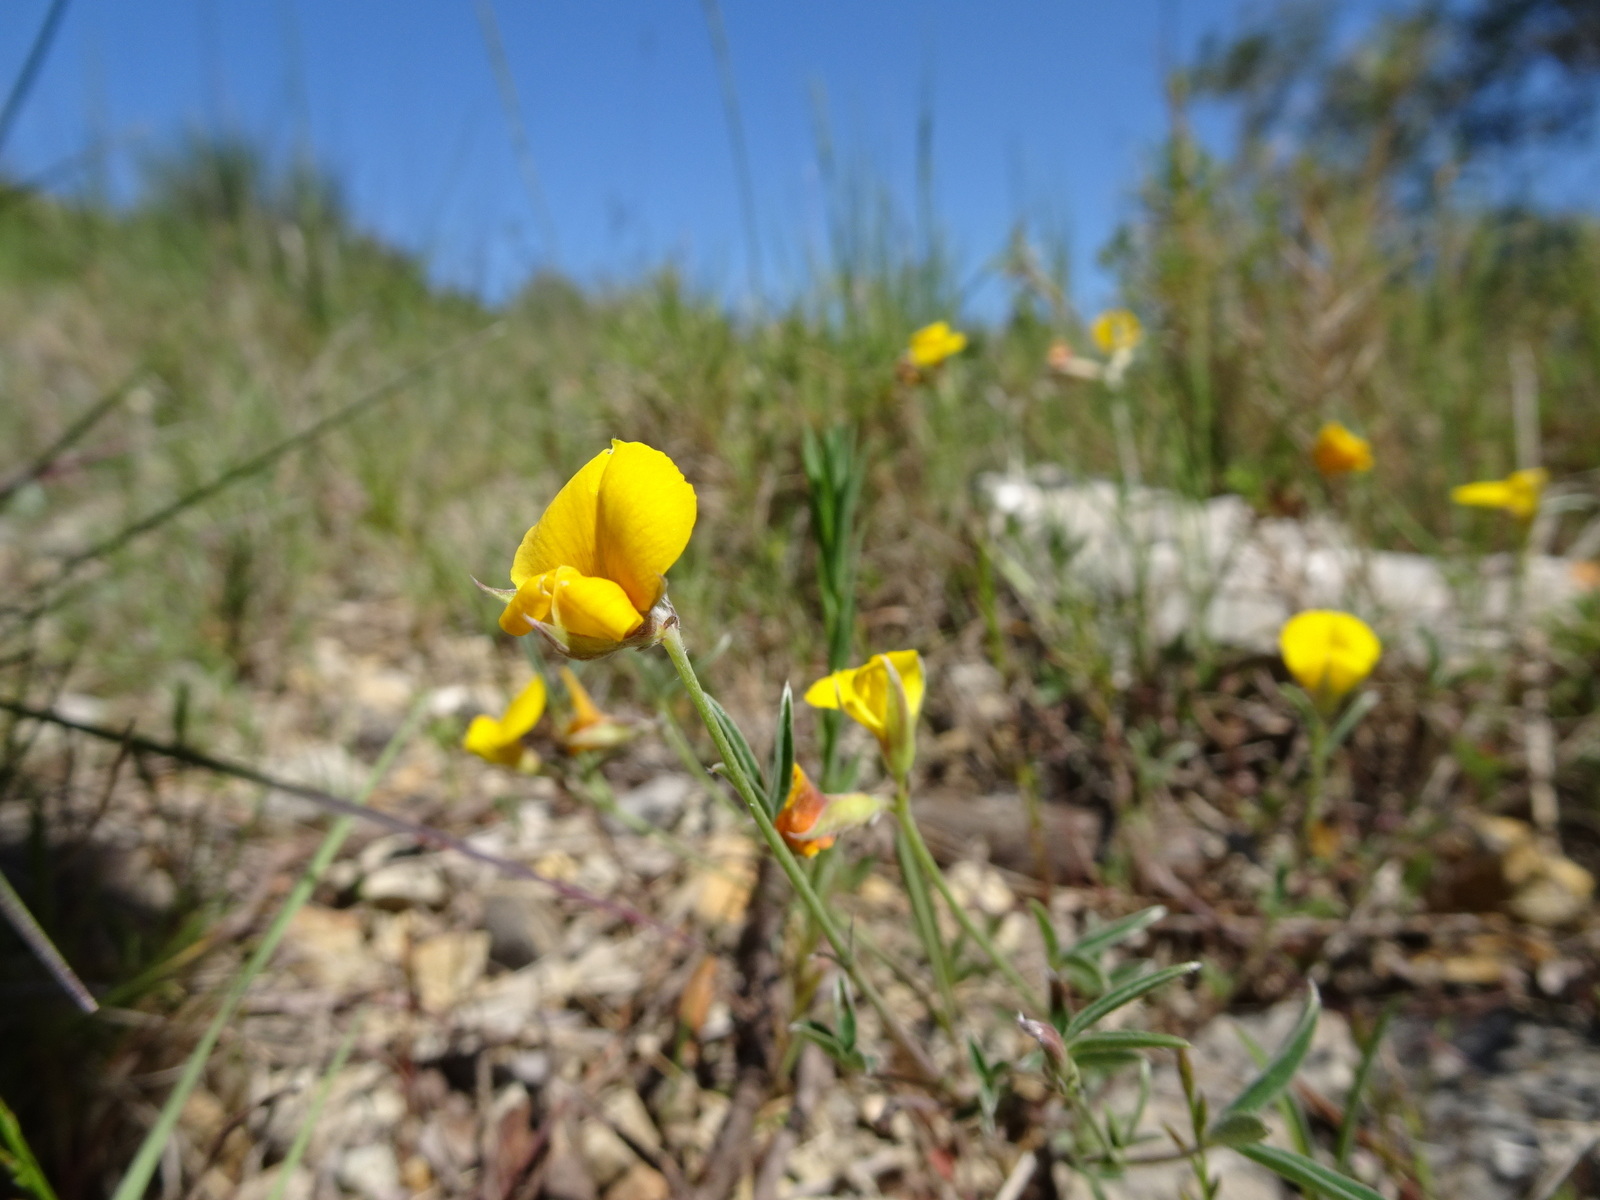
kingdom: Plantae
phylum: Tracheophyta
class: Magnoliopsida
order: Fabales
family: Fabaceae
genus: Argyrolobium
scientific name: Argyrolobium zanonii
